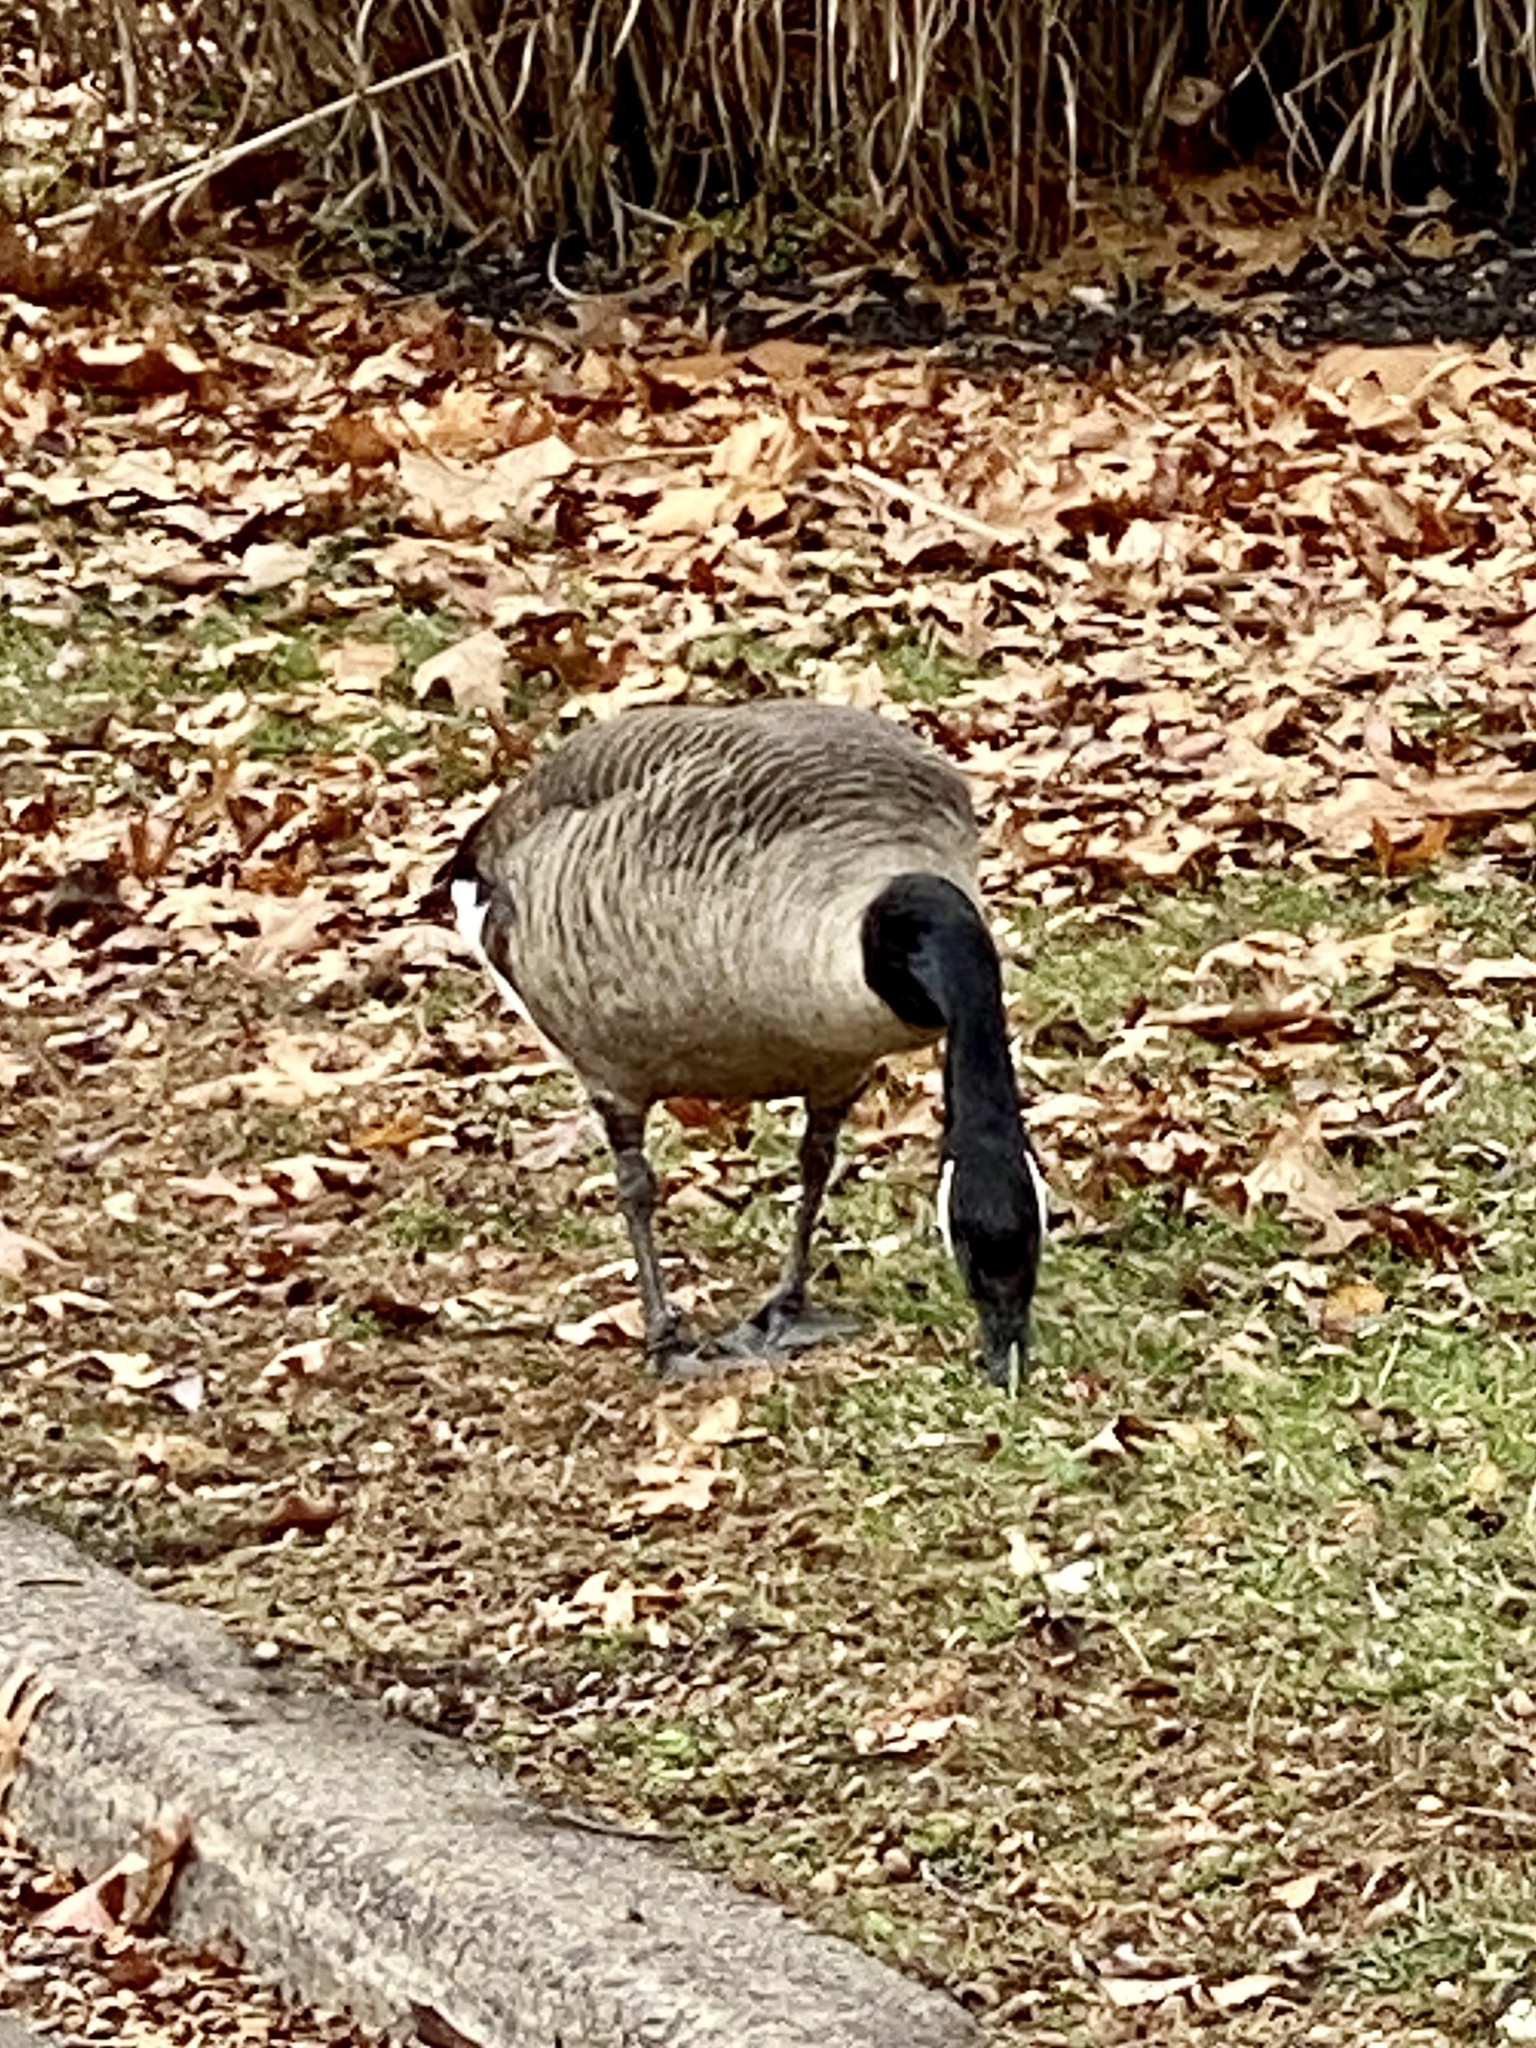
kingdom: Animalia
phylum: Chordata
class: Aves
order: Anseriformes
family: Anatidae
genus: Branta
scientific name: Branta canadensis
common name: Canada goose
